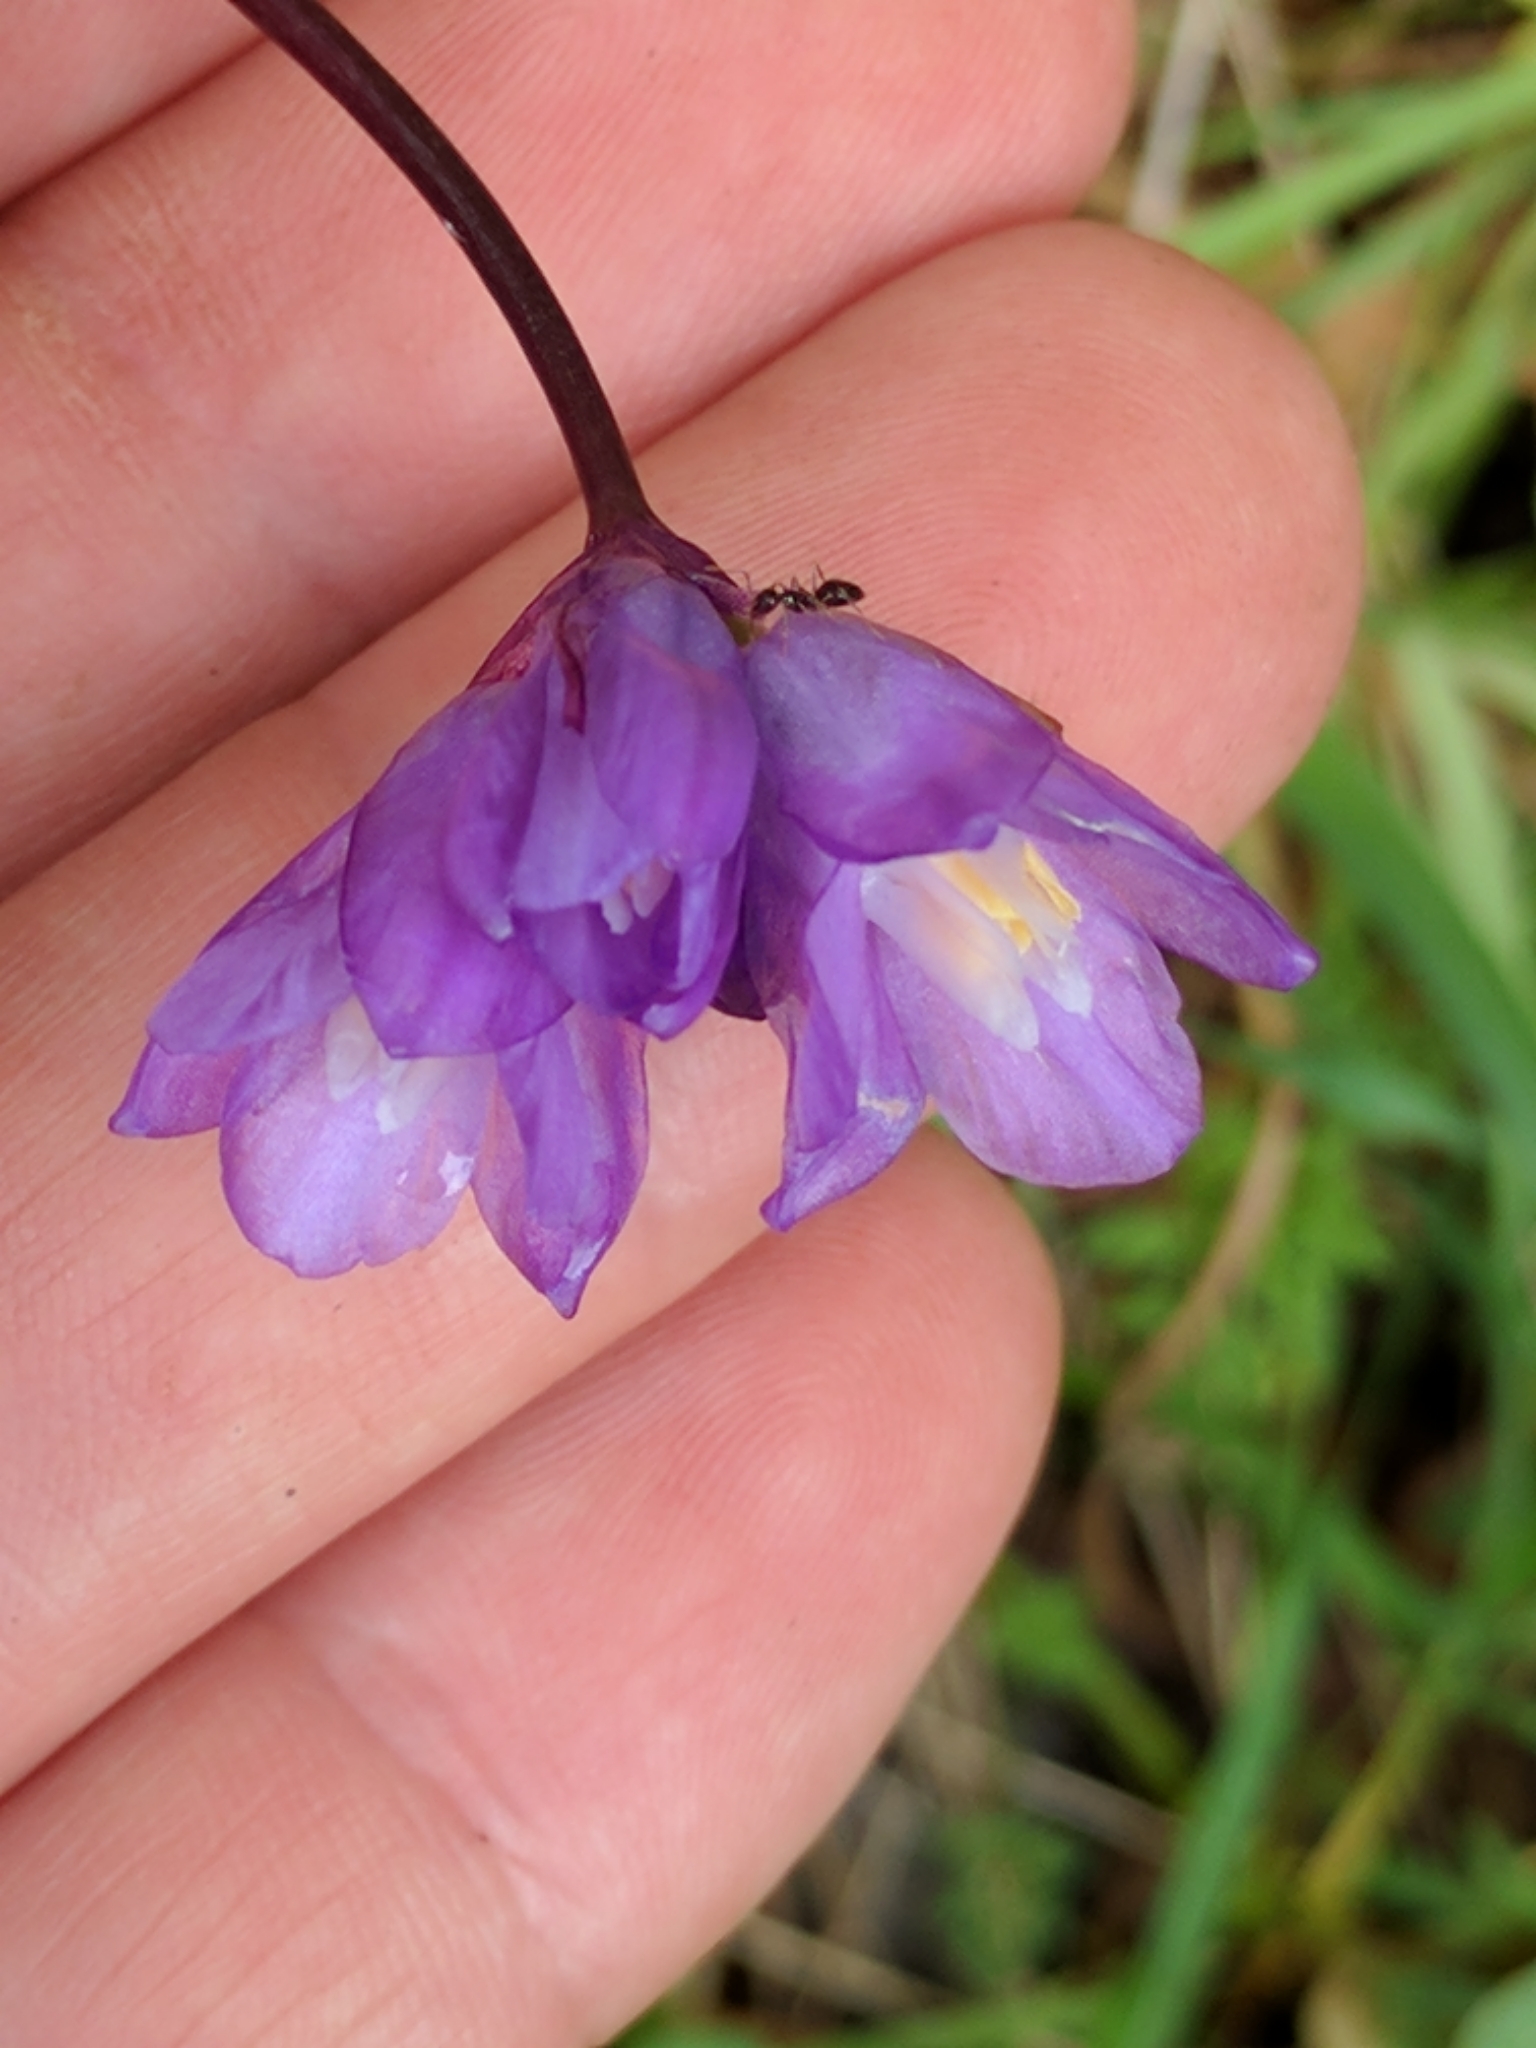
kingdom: Plantae
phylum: Tracheophyta
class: Liliopsida
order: Asparagales
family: Asparagaceae
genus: Dipterostemon
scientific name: Dipterostemon capitatus
